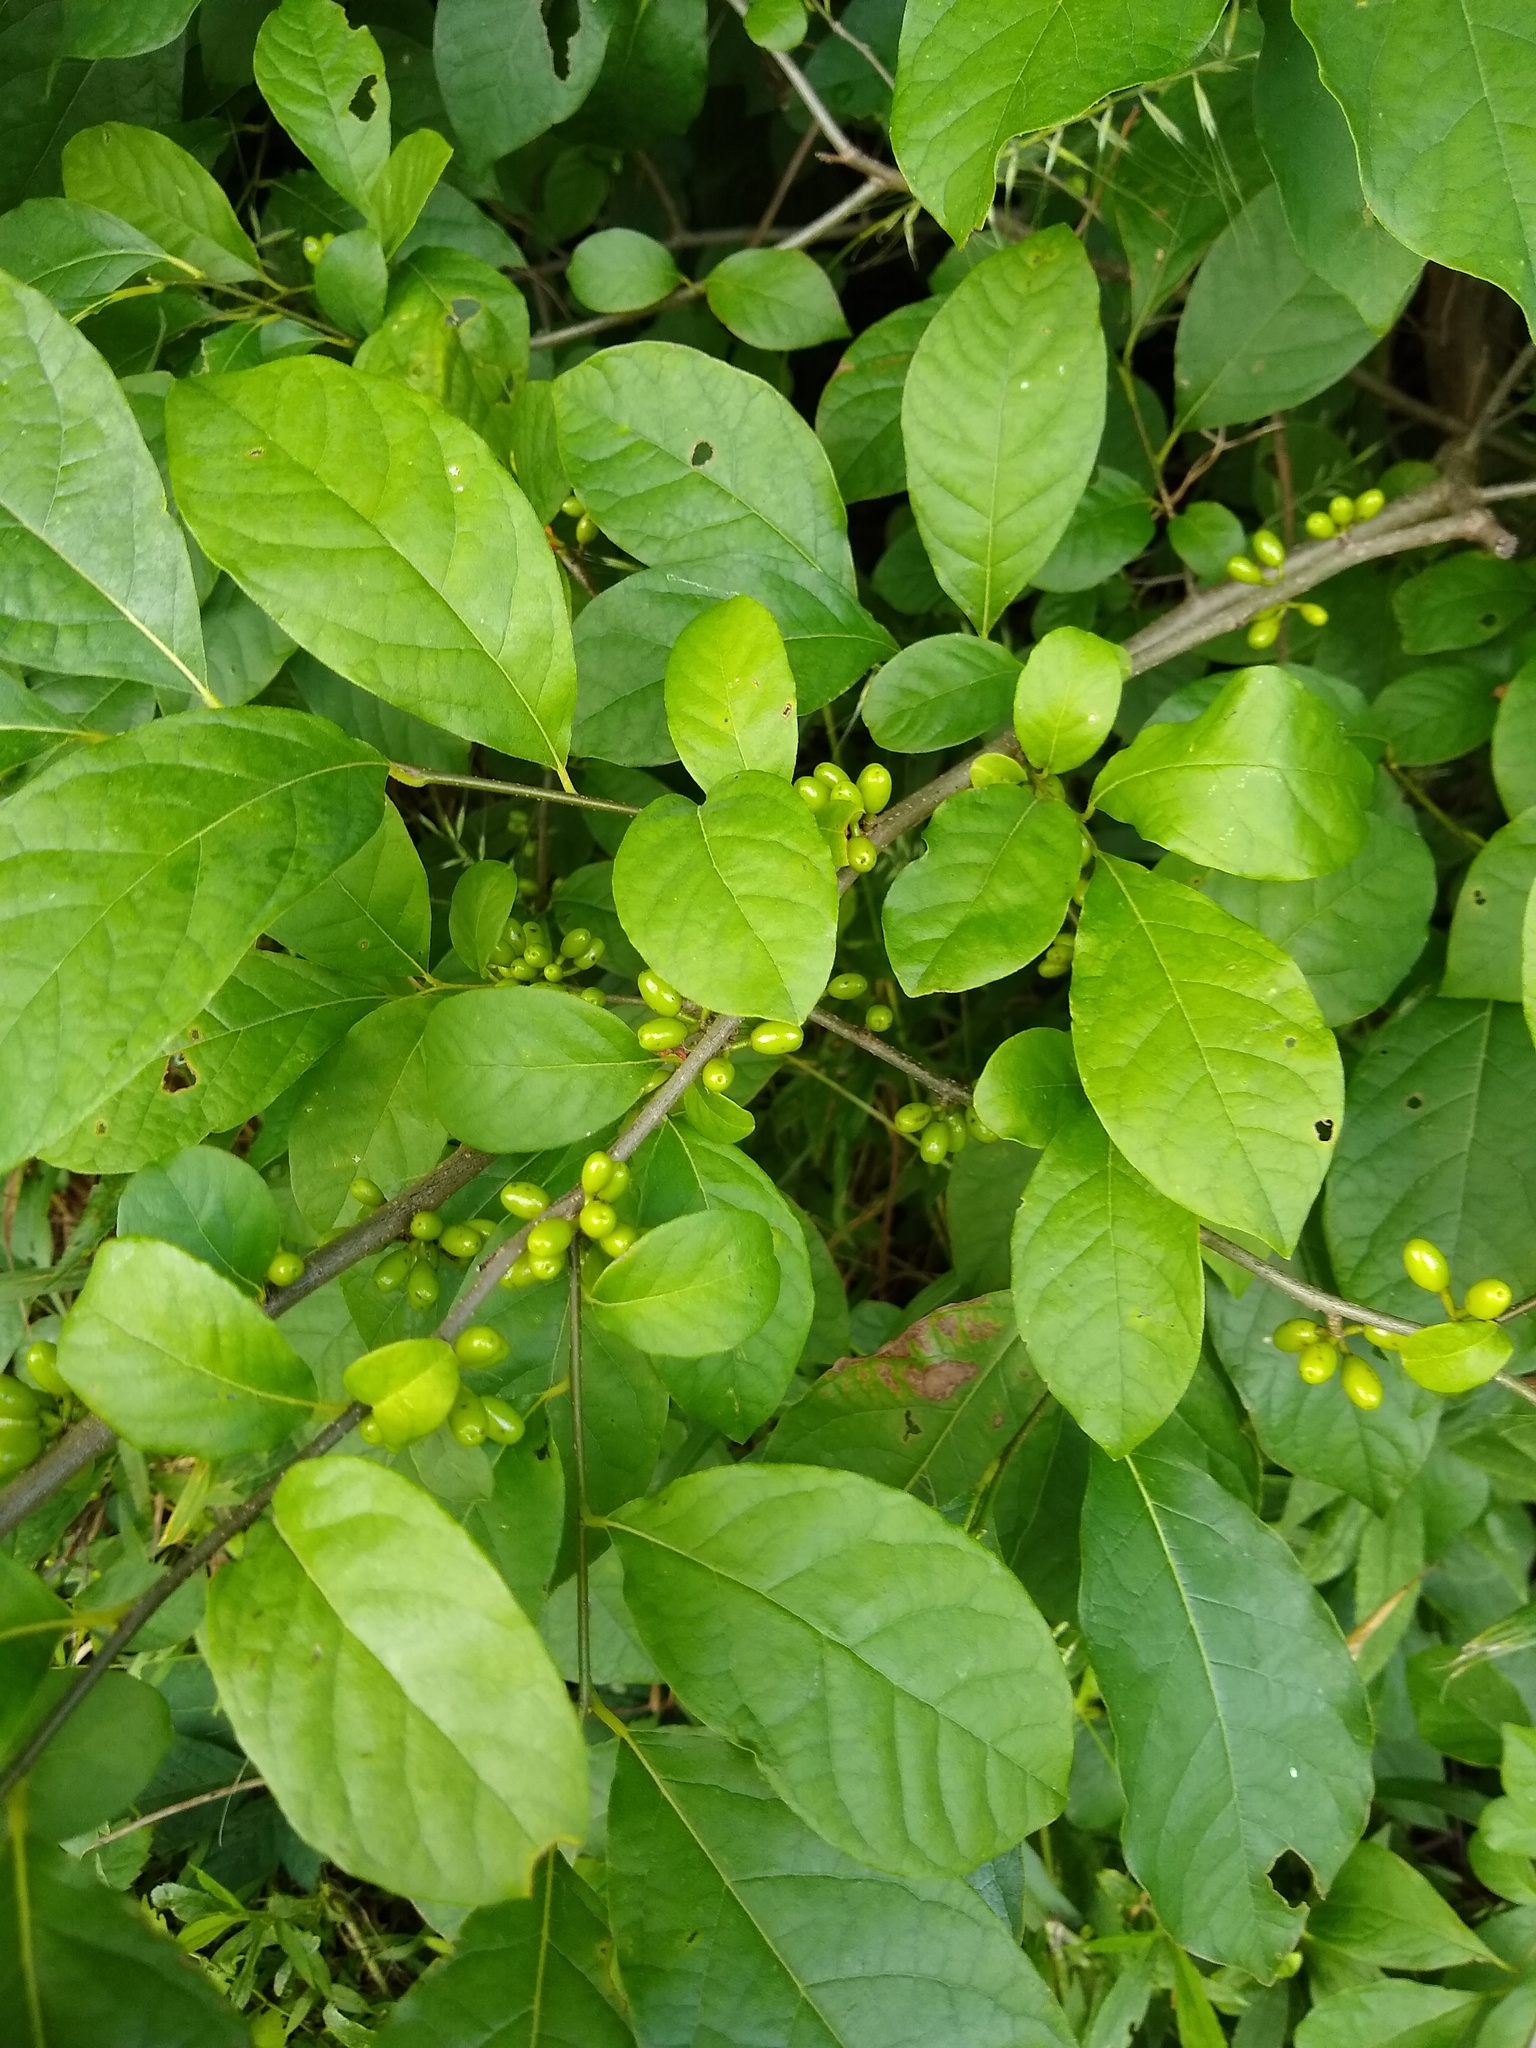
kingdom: Plantae
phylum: Tracheophyta
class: Magnoliopsida
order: Laurales
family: Lauraceae
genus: Lindera
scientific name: Lindera benzoin
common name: Spicebush
